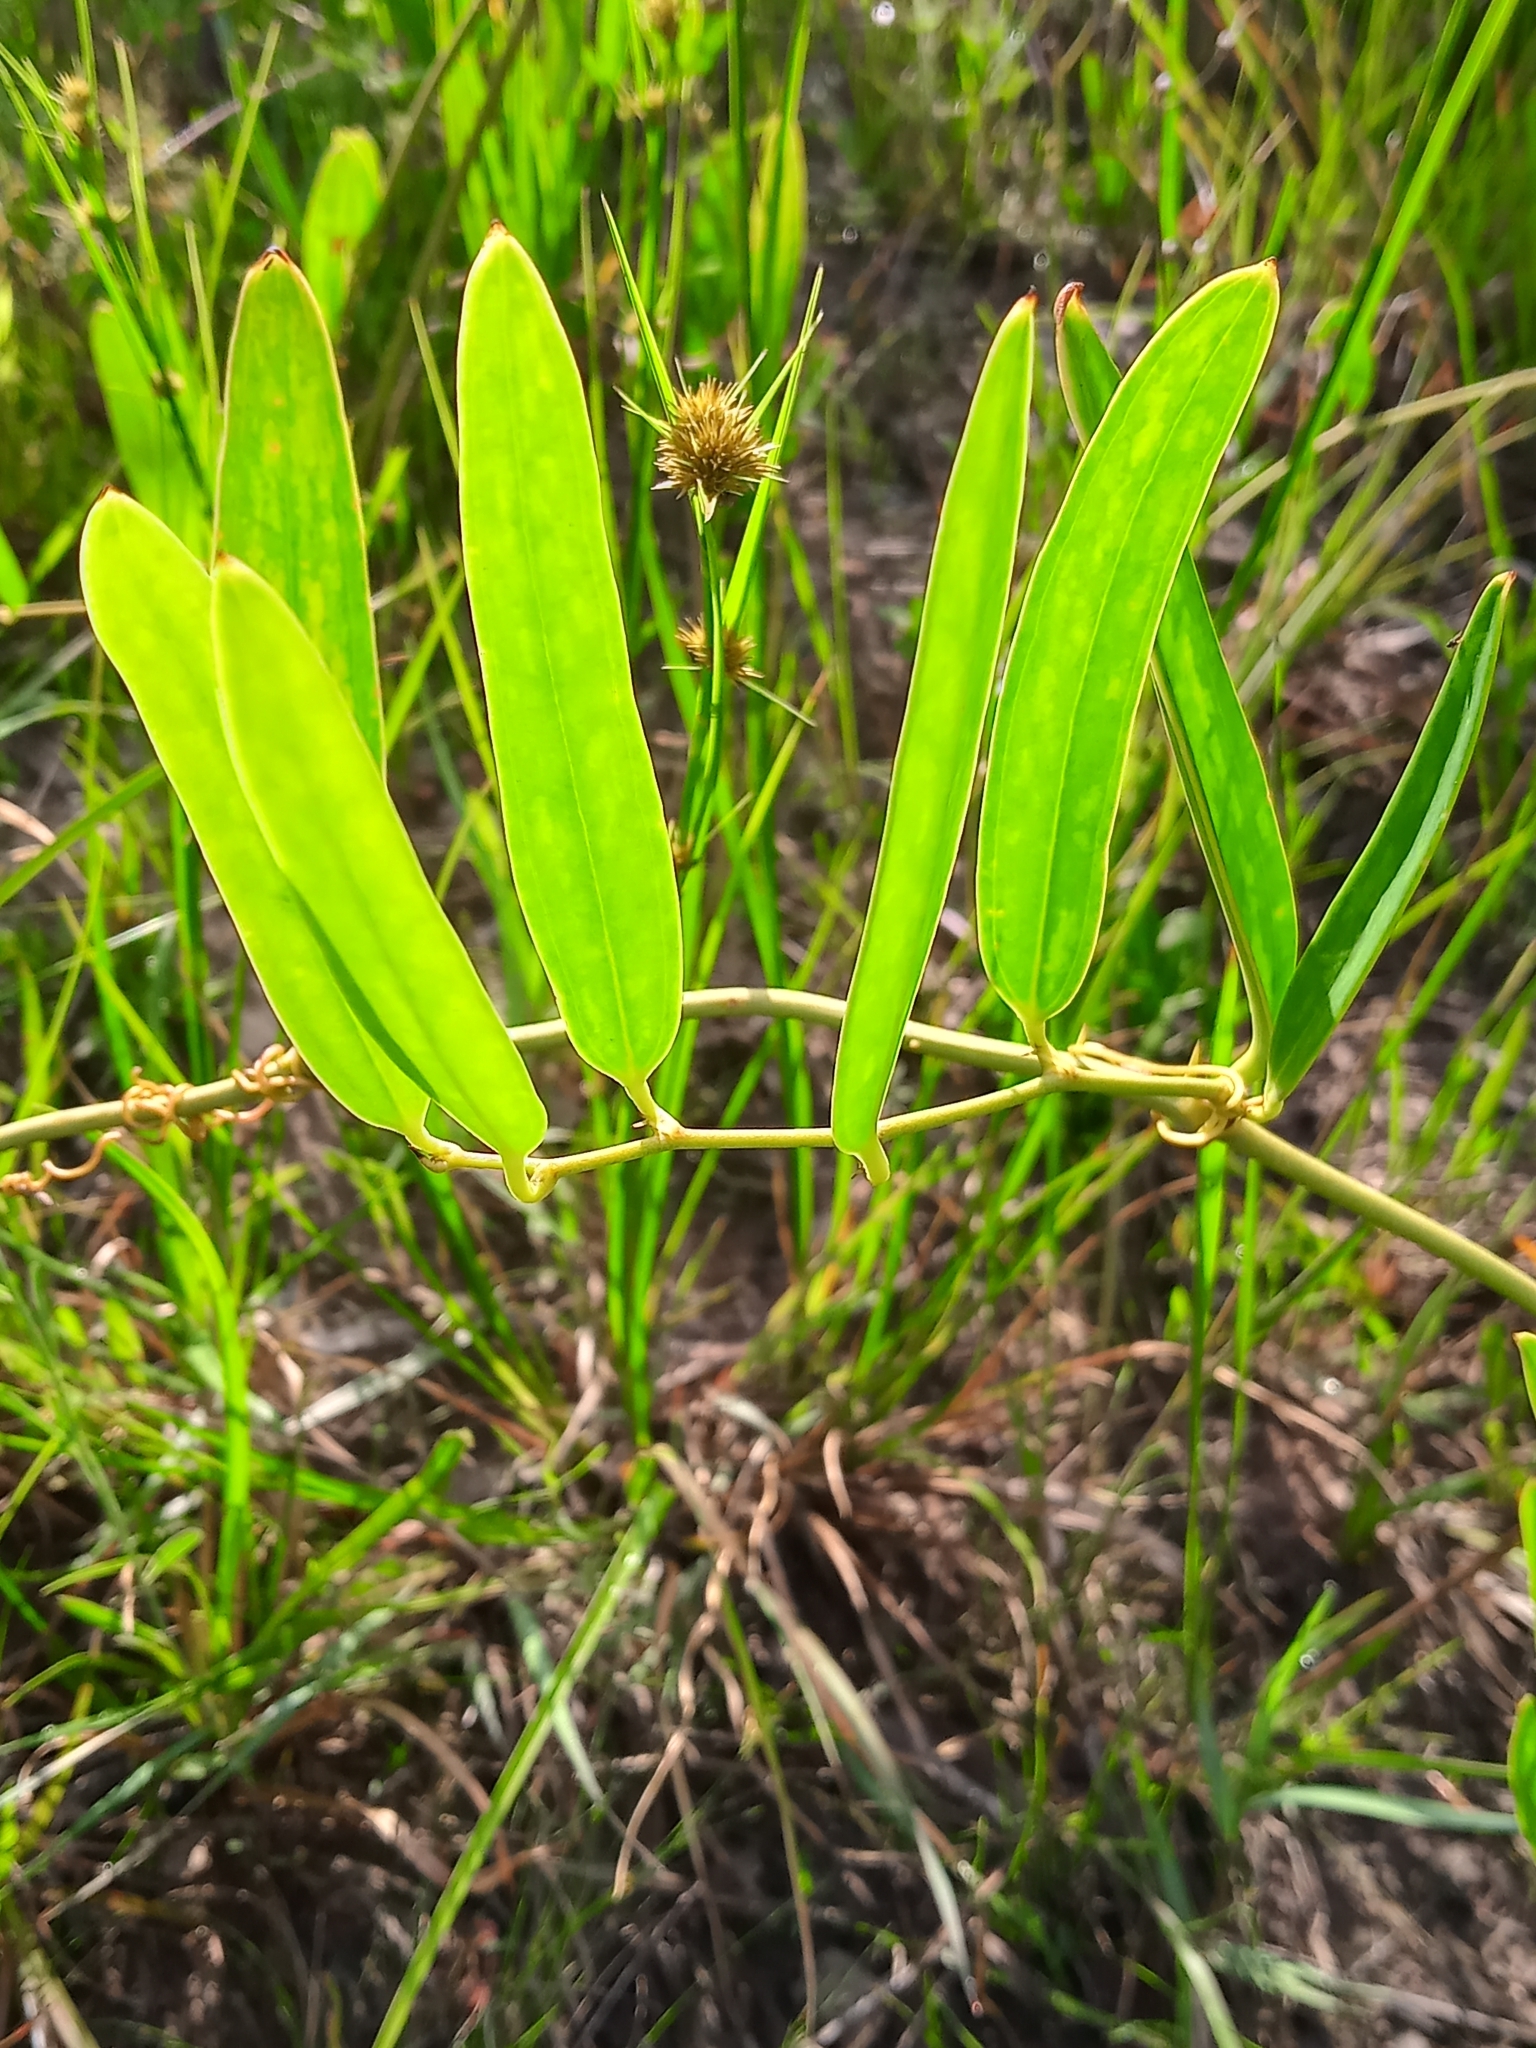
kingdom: Plantae
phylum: Tracheophyta
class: Liliopsida
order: Liliales
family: Smilacaceae
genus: Smilax
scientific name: Smilax laurifolia
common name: Bamboovine
